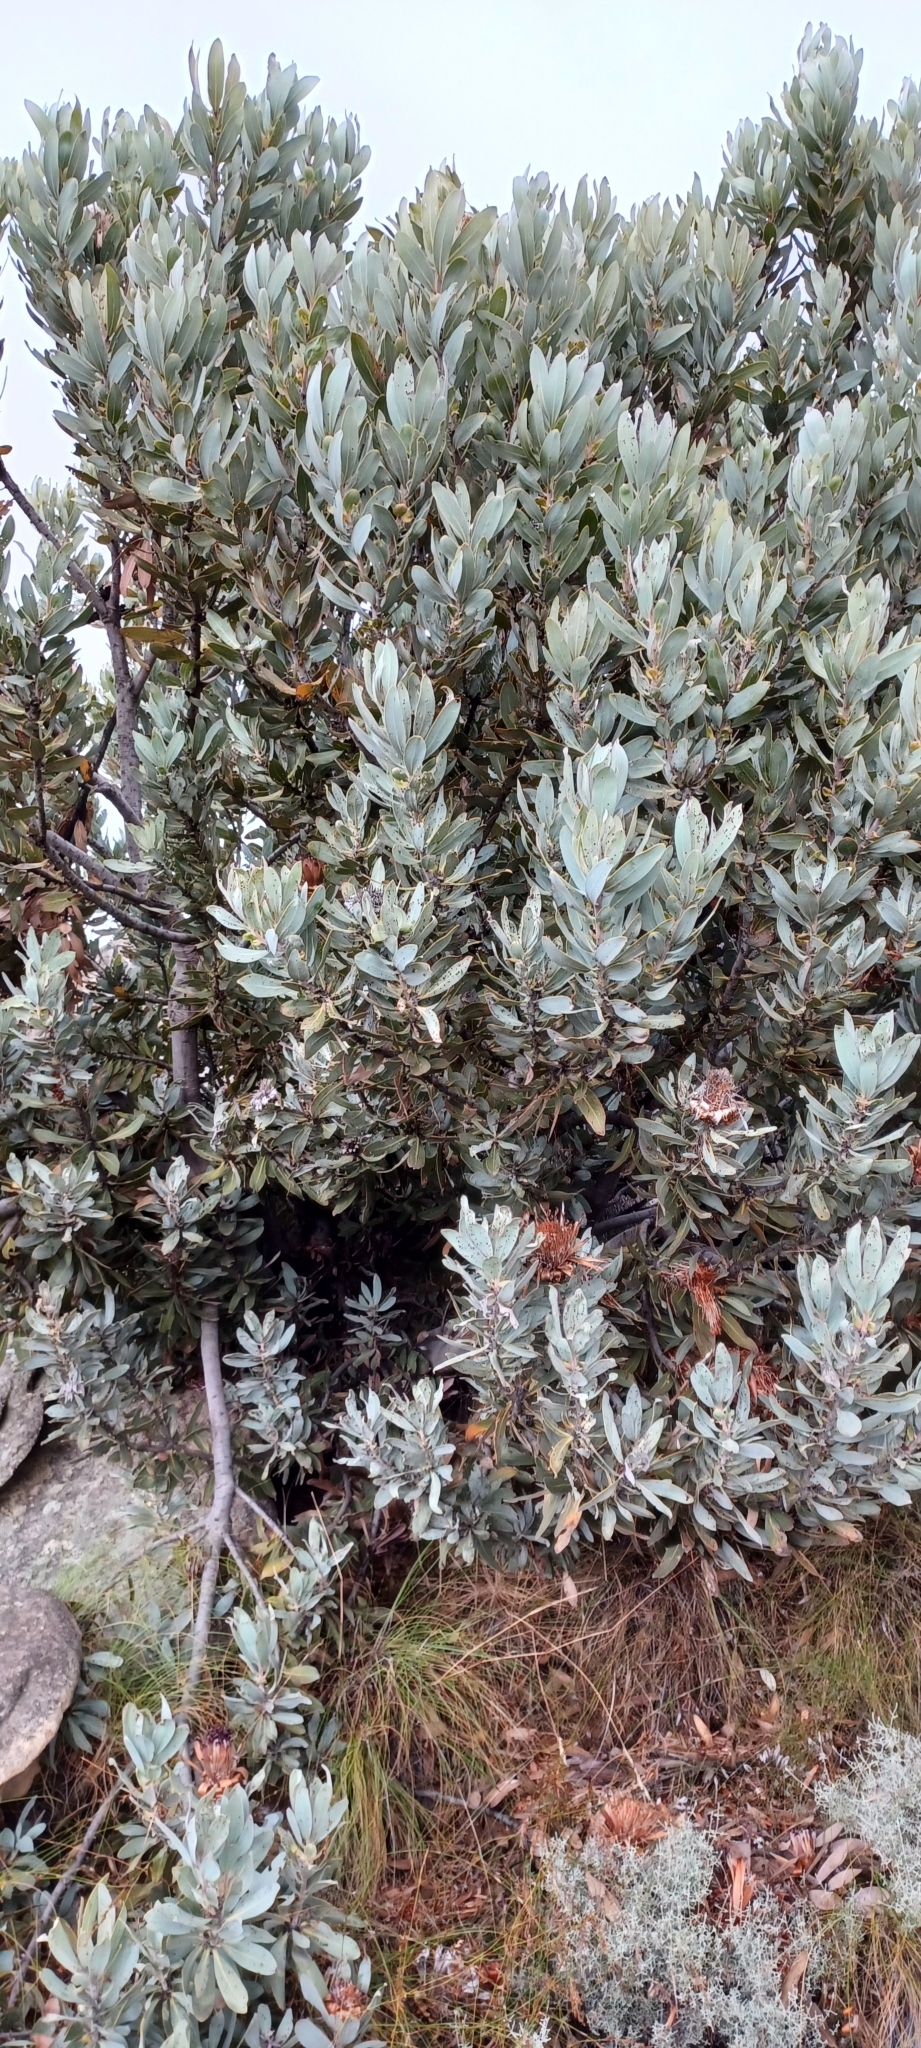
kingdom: Plantae
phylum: Tracheophyta
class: Magnoliopsida
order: Proteales
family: Proteaceae
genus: Protea
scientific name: Protea laurifolia
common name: Grey-leaf sugarbsh
